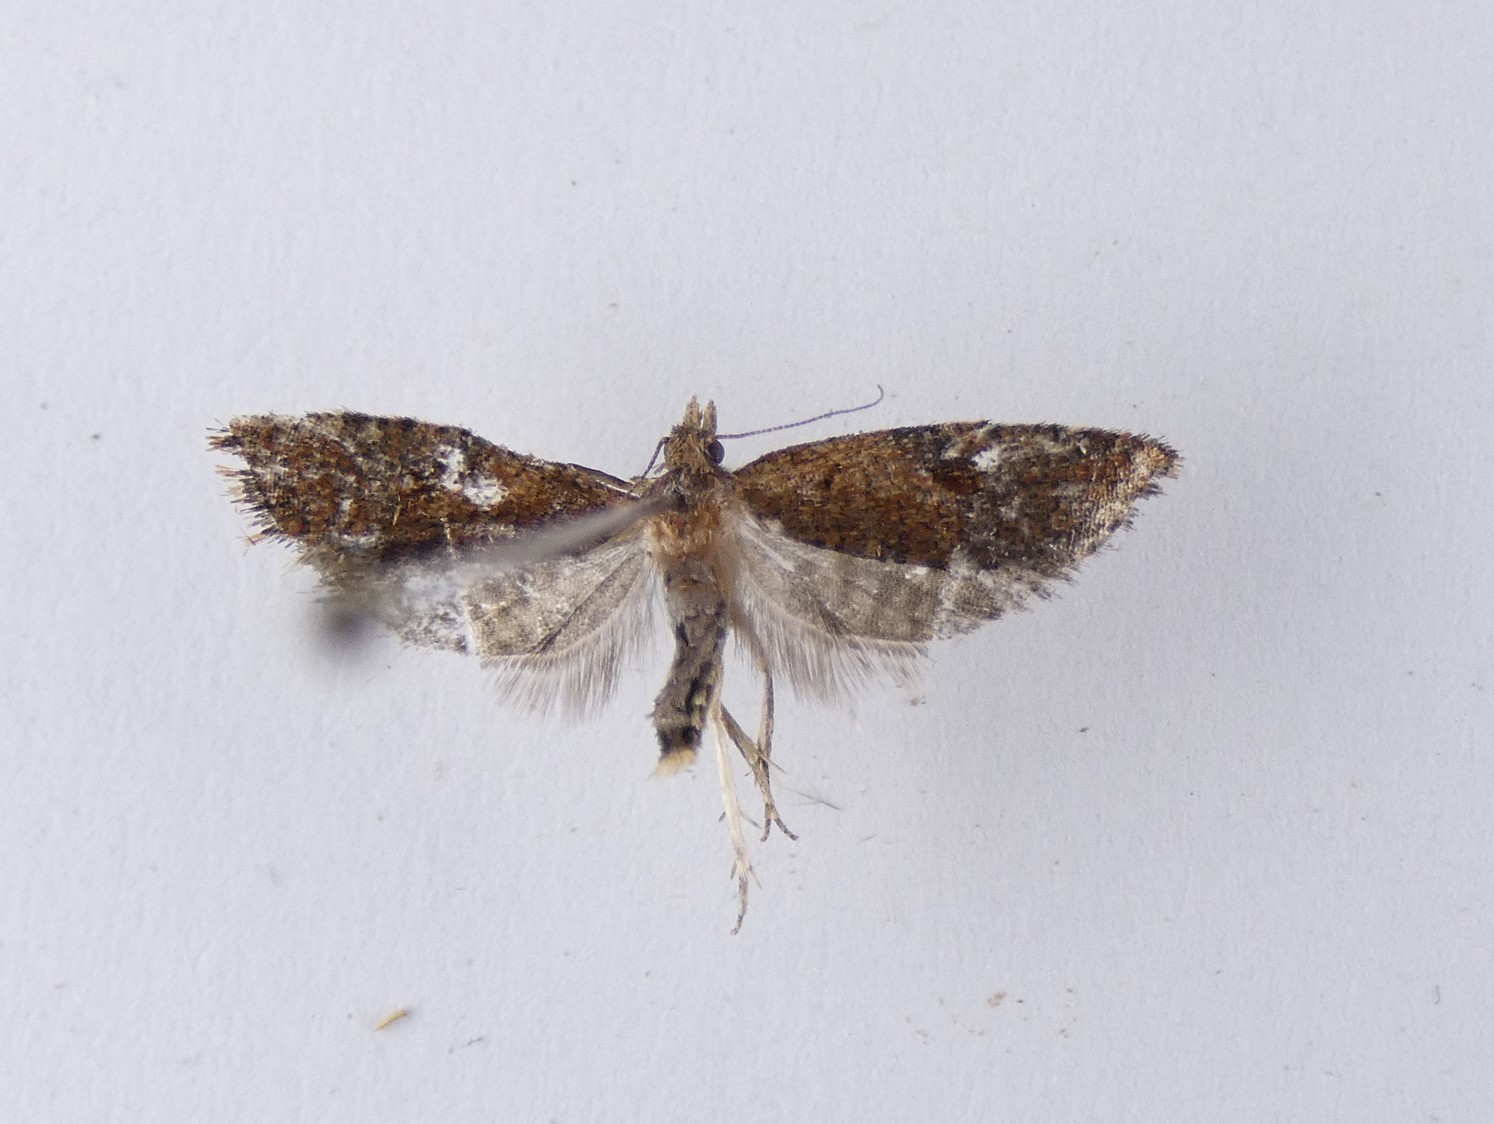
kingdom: Animalia
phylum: Arthropoda
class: Insecta
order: Lepidoptera
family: Tortricidae
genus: Capua
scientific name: Capua semiferana
